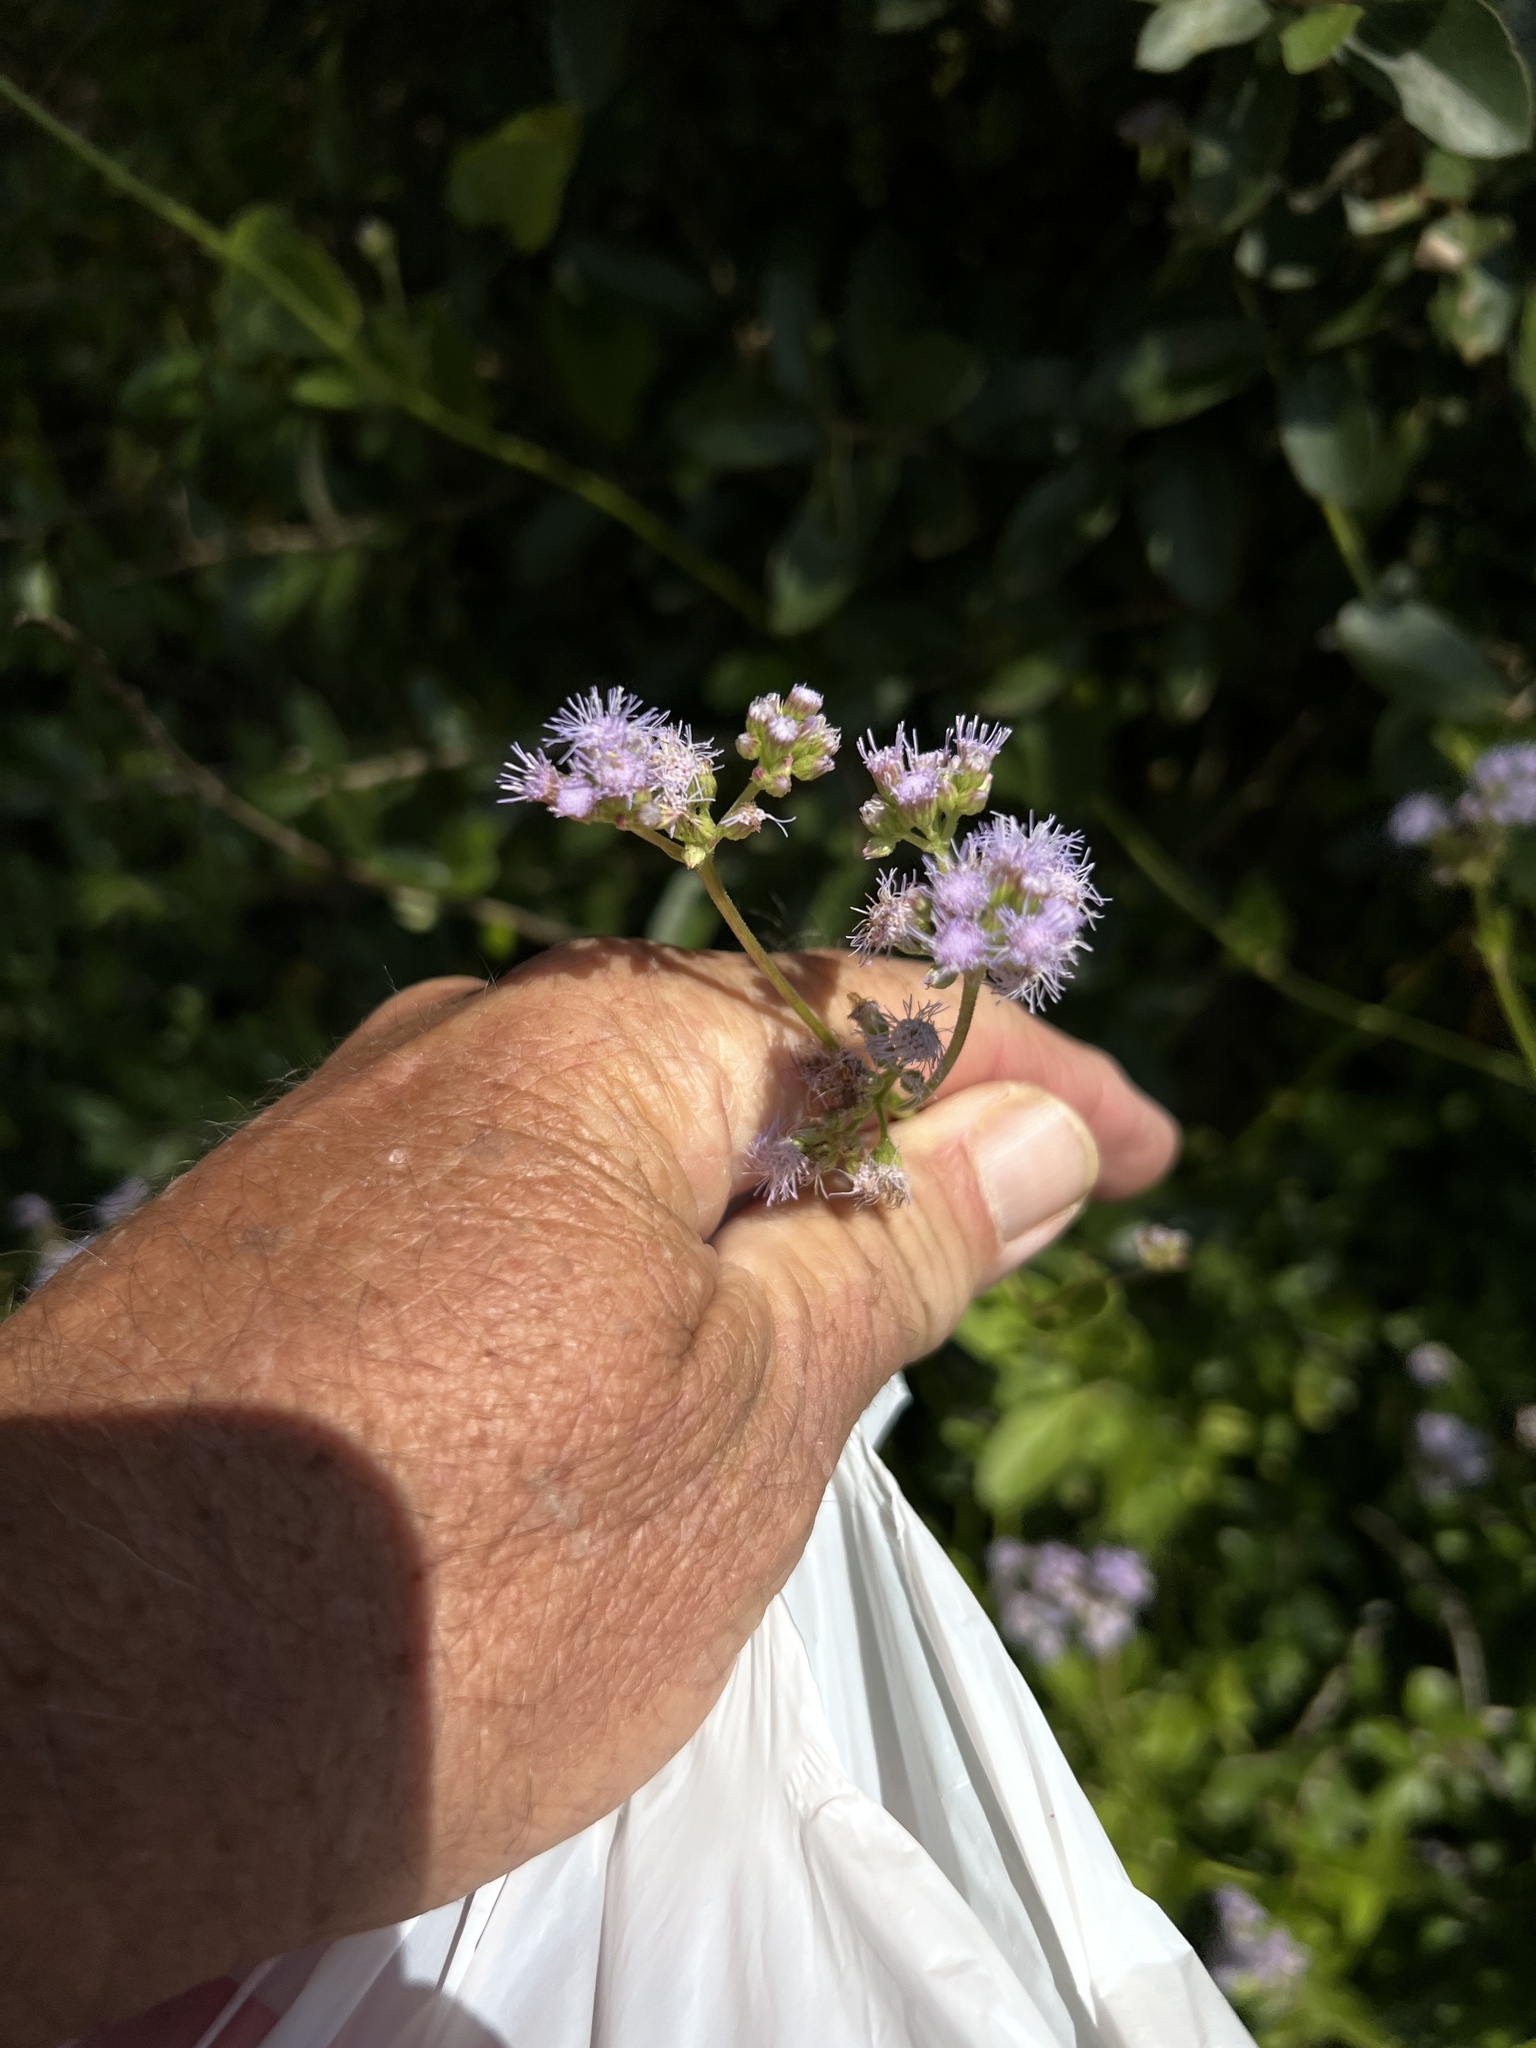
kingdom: Plantae
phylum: Tracheophyta
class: Magnoliopsida
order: Asterales
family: Asteraceae
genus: Conoclinium
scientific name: Conoclinium betonicifolium
